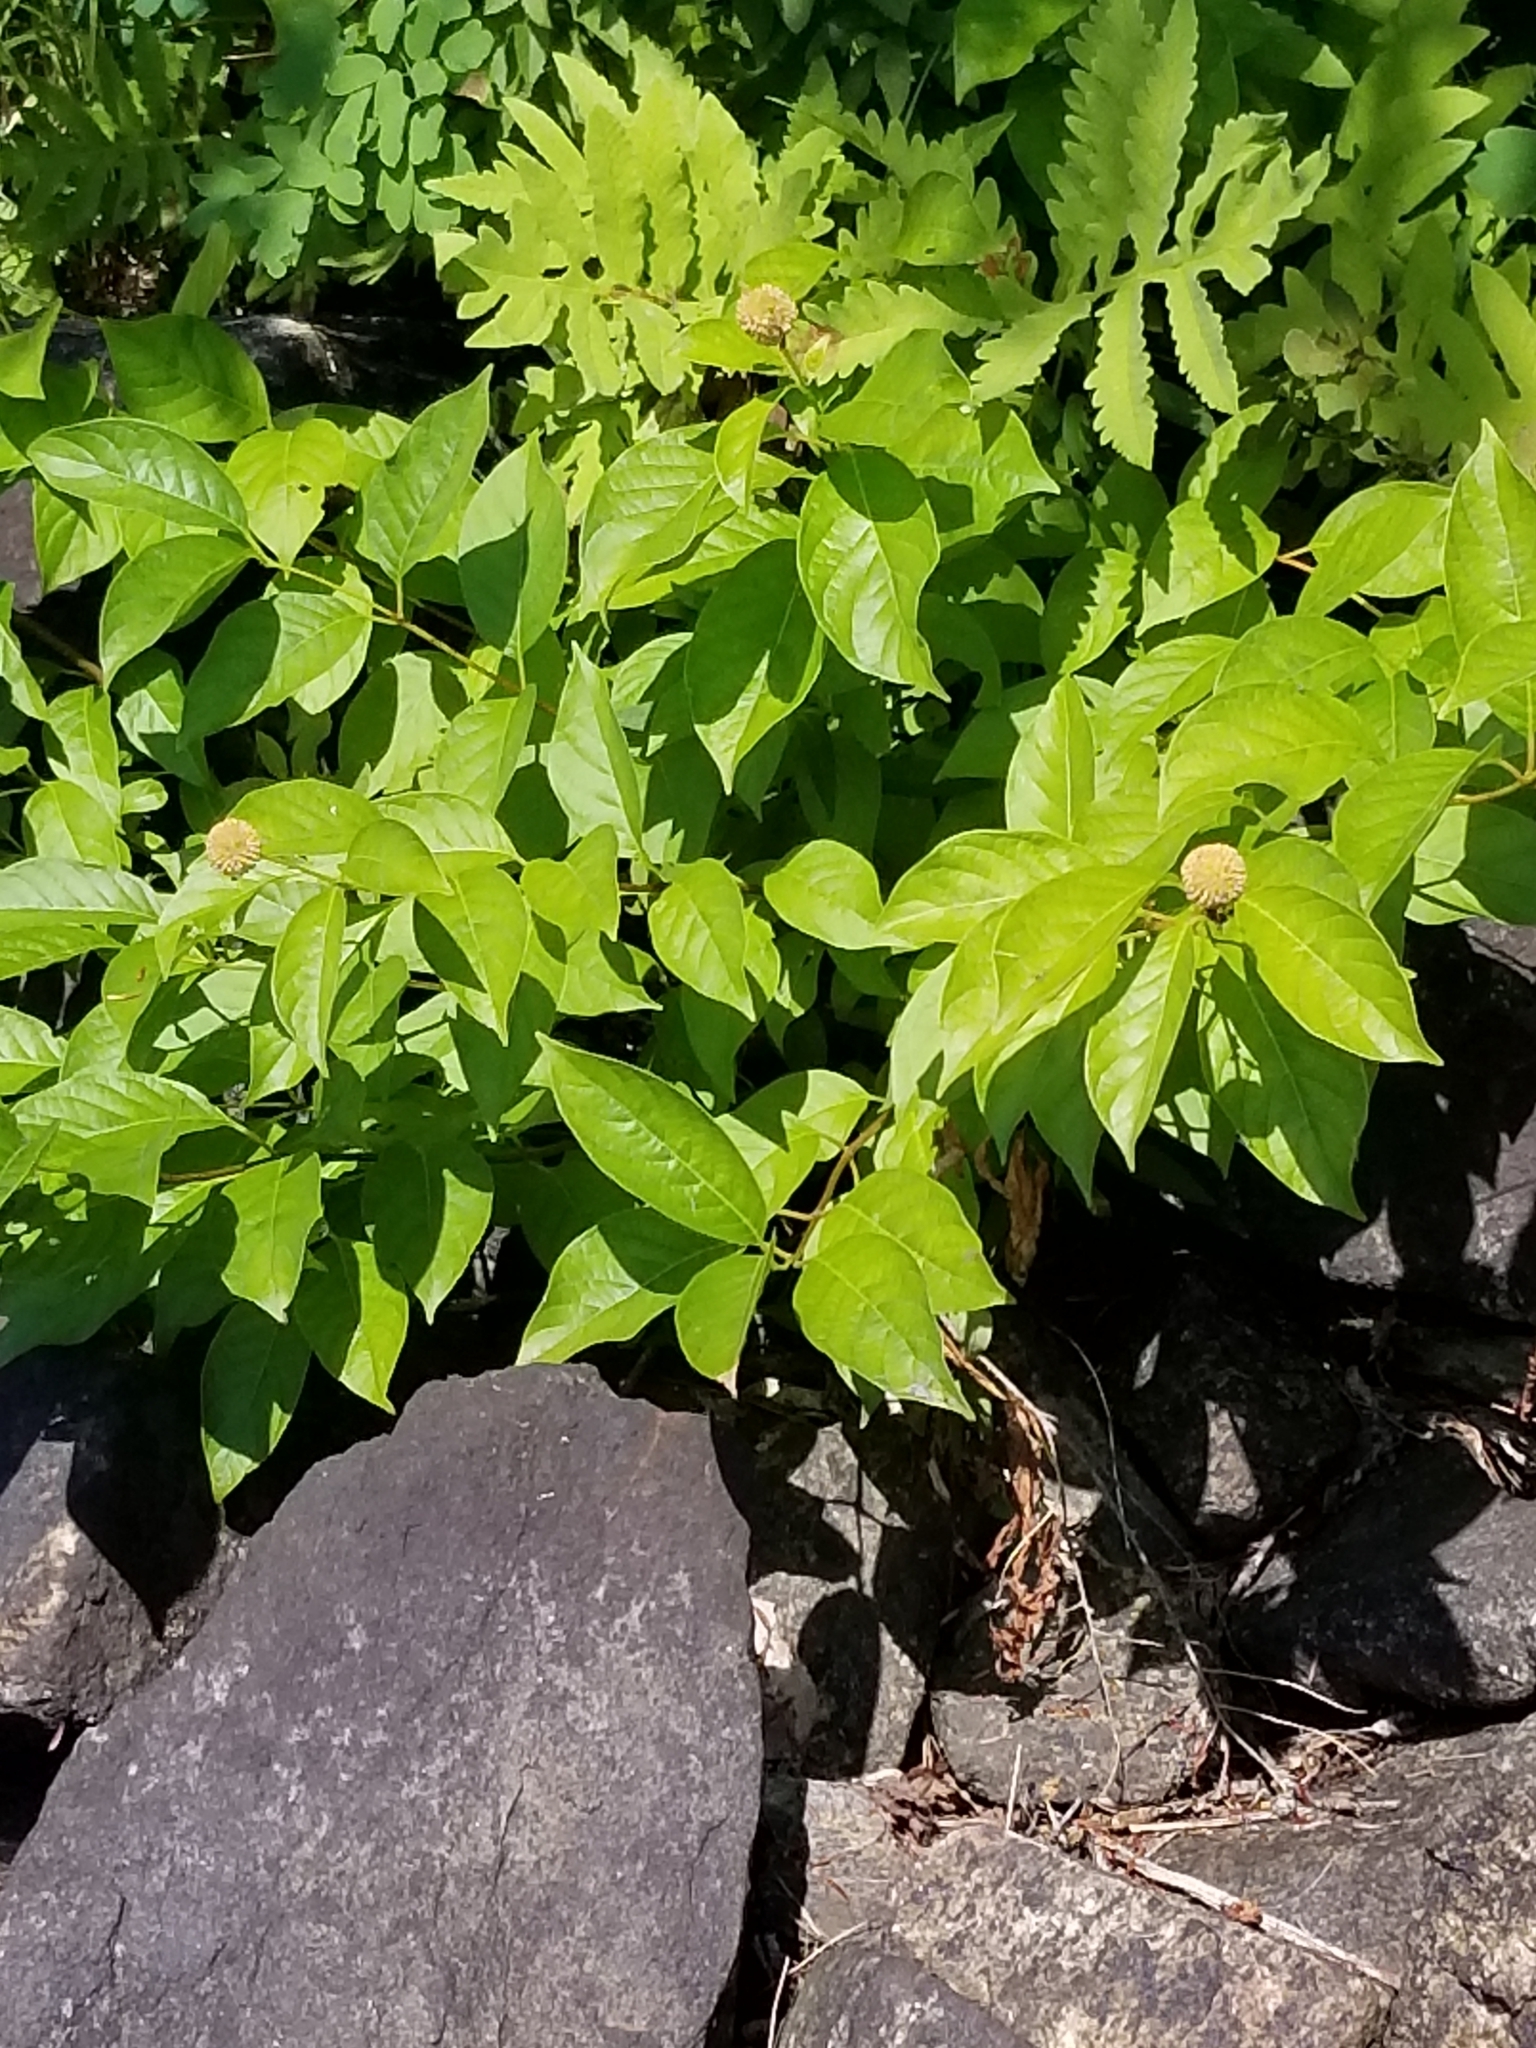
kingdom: Plantae
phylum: Tracheophyta
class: Magnoliopsida
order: Gentianales
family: Rubiaceae
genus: Cephalanthus
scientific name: Cephalanthus occidentalis
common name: Button-willow
